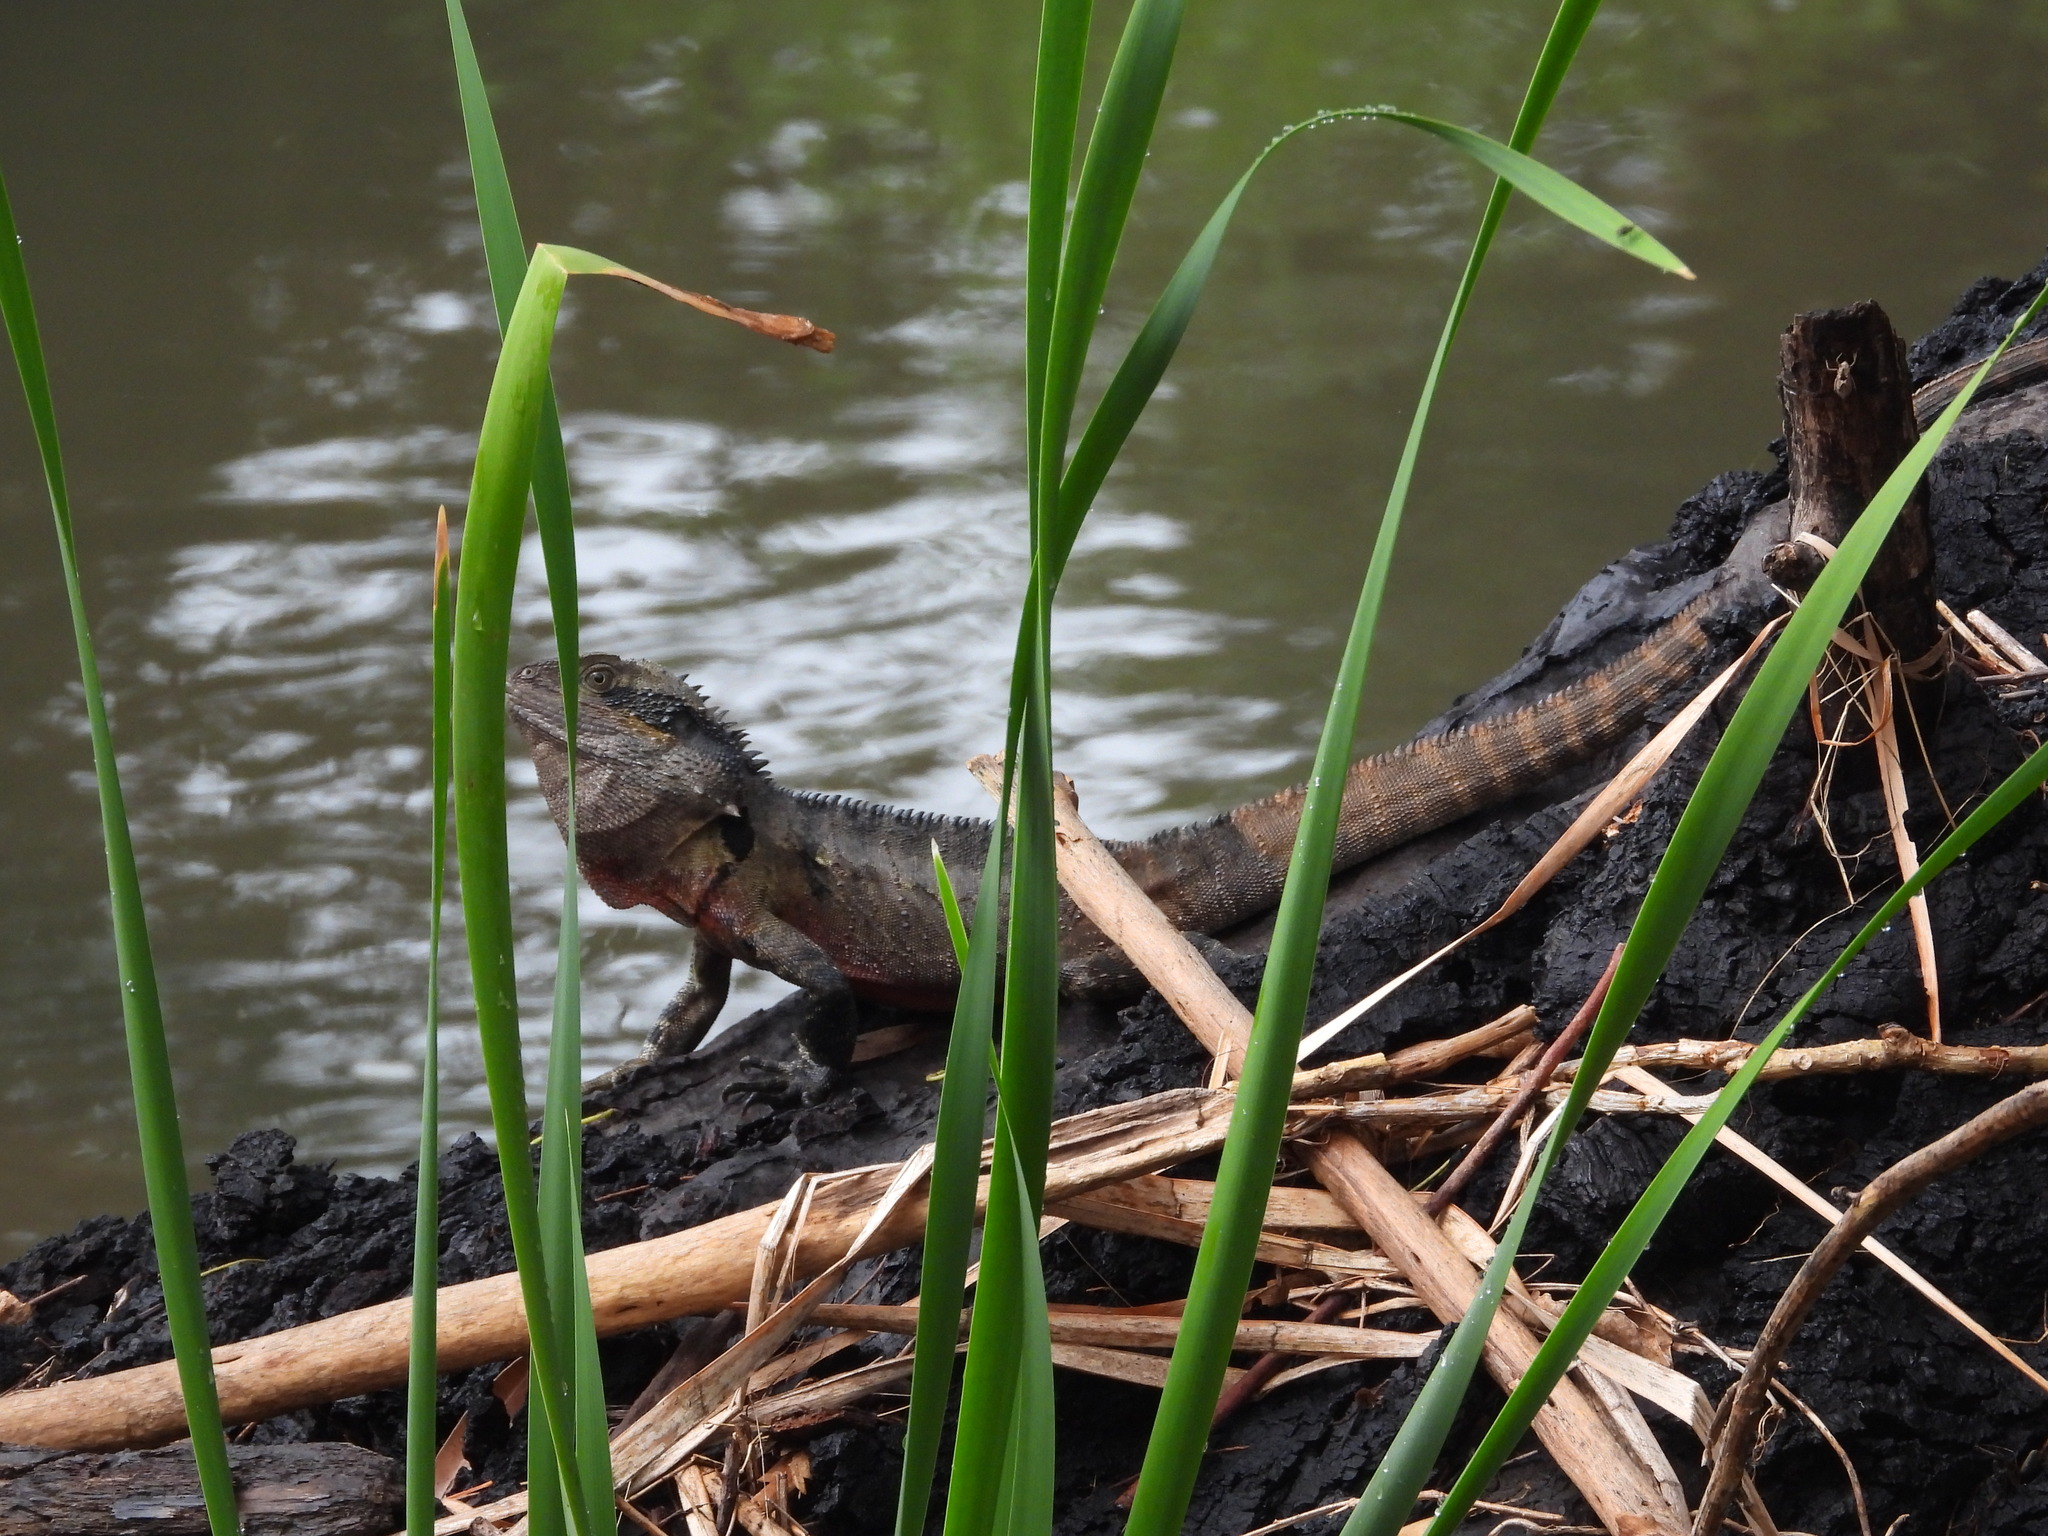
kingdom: Animalia
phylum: Chordata
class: Squamata
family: Agamidae
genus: Intellagama
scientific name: Intellagama lesueurii
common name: Eastern water dragon
